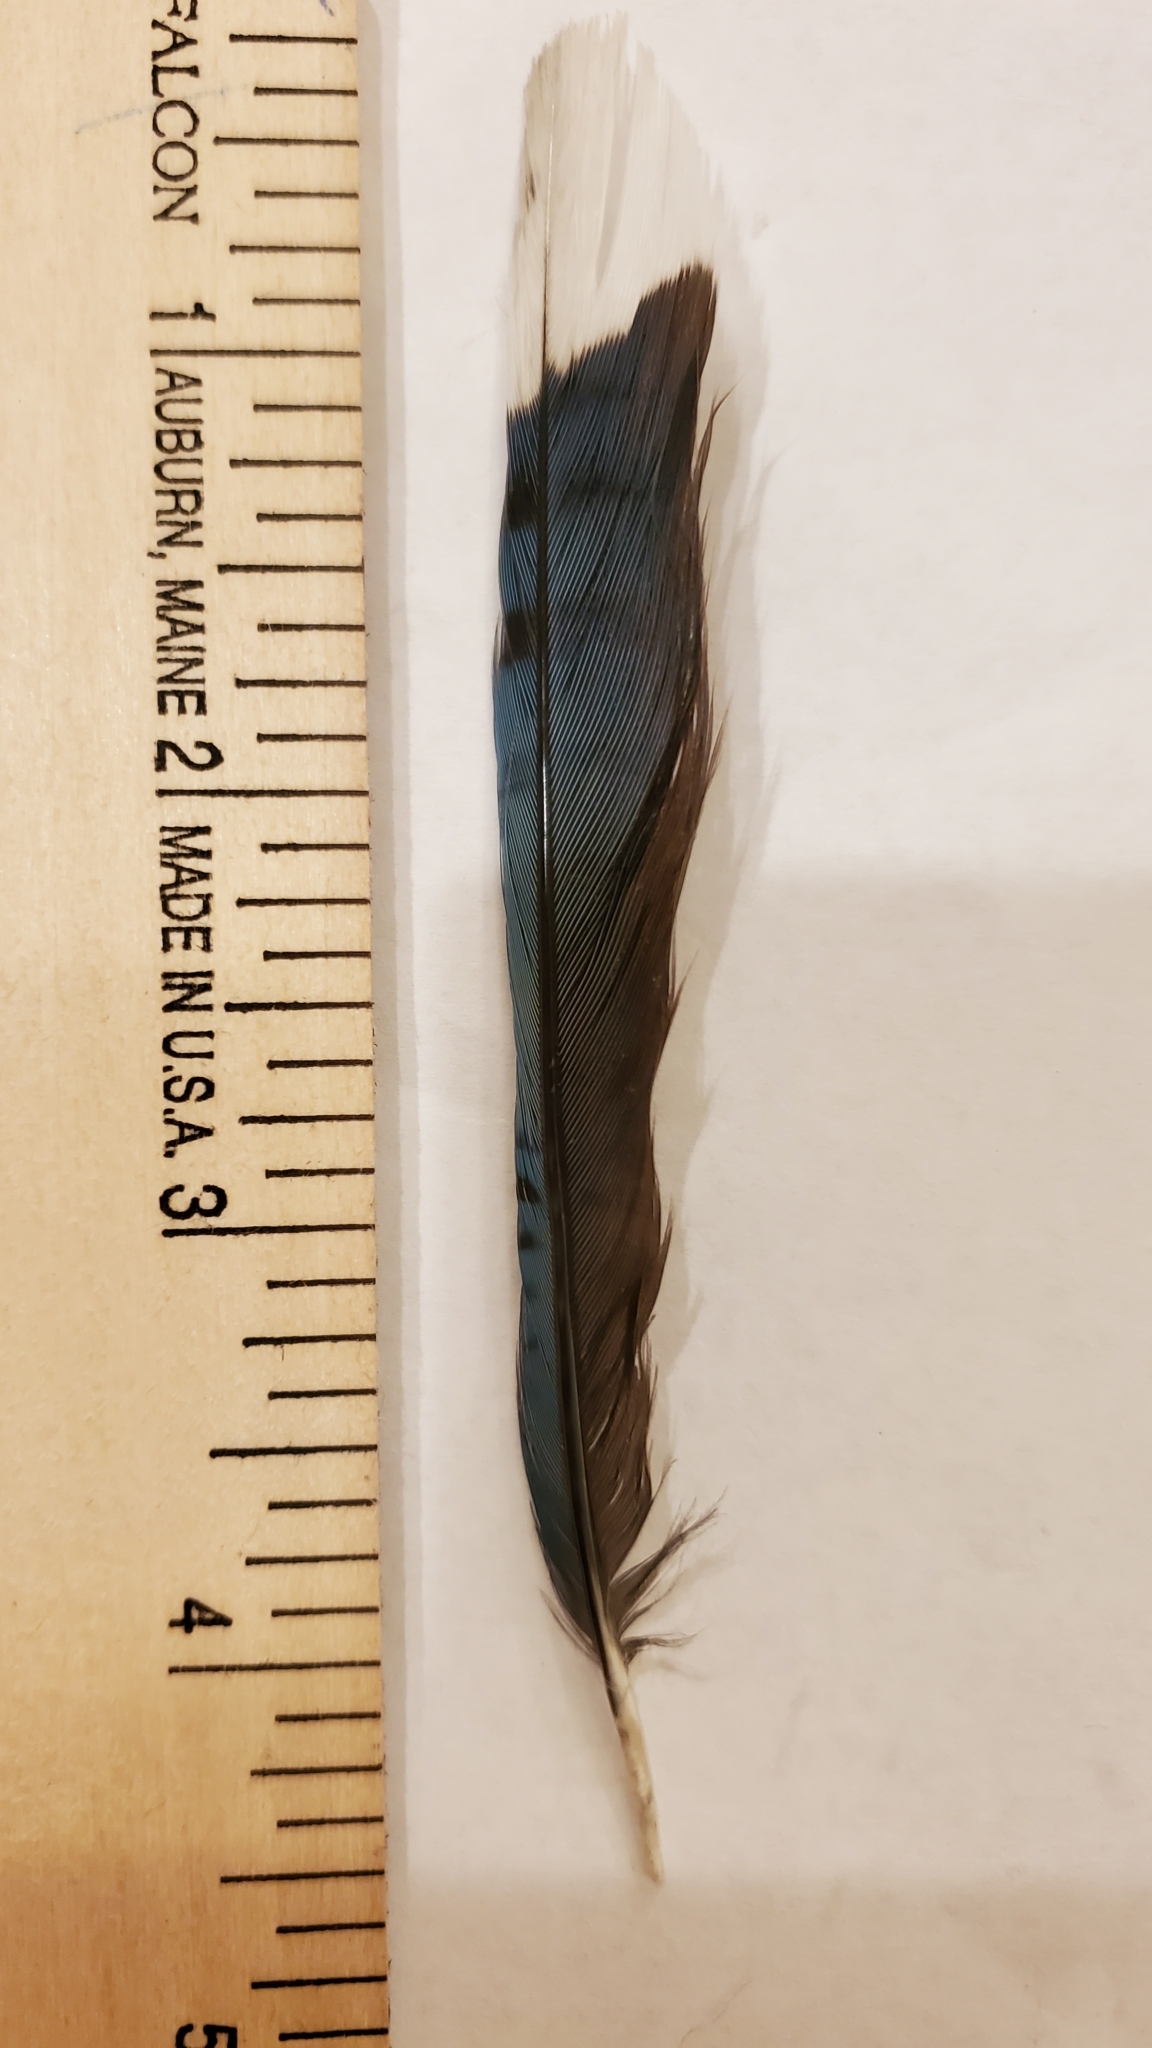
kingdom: Animalia
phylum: Chordata
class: Aves
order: Passeriformes
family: Corvidae
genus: Cyanocitta
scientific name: Cyanocitta cristata
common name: Blue jay
